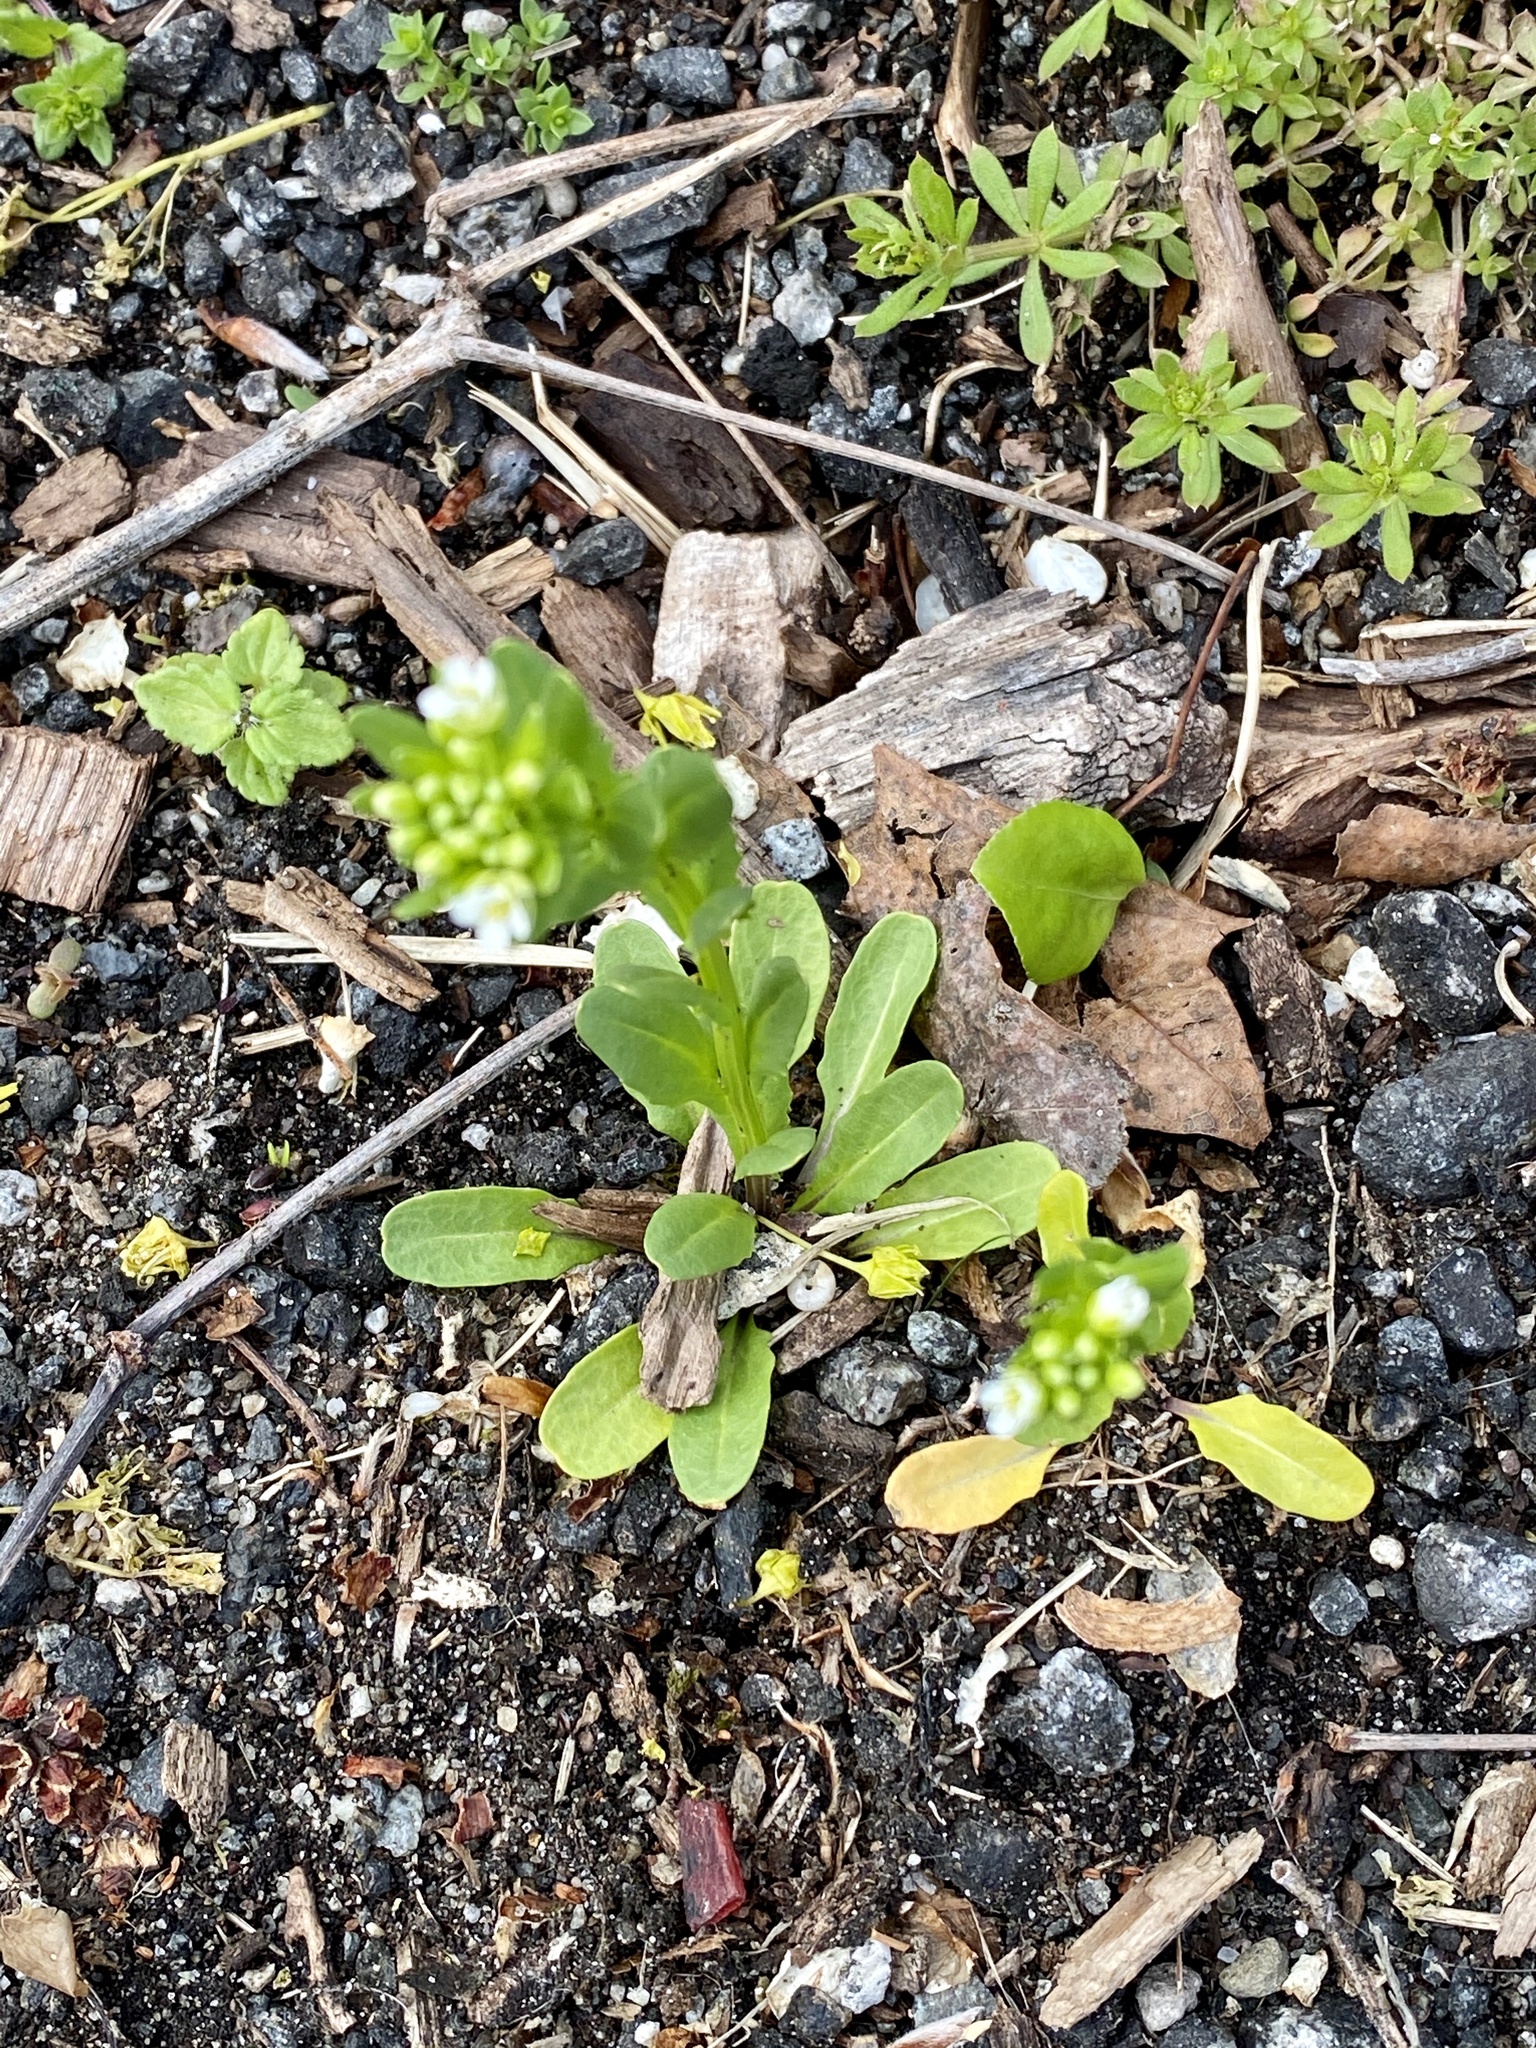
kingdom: Plantae
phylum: Tracheophyta
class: Magnoliopsida
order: Brassicales
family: Brassicaceae
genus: Thlaspi
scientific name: Thlaspi arvense
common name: Field pennycress
